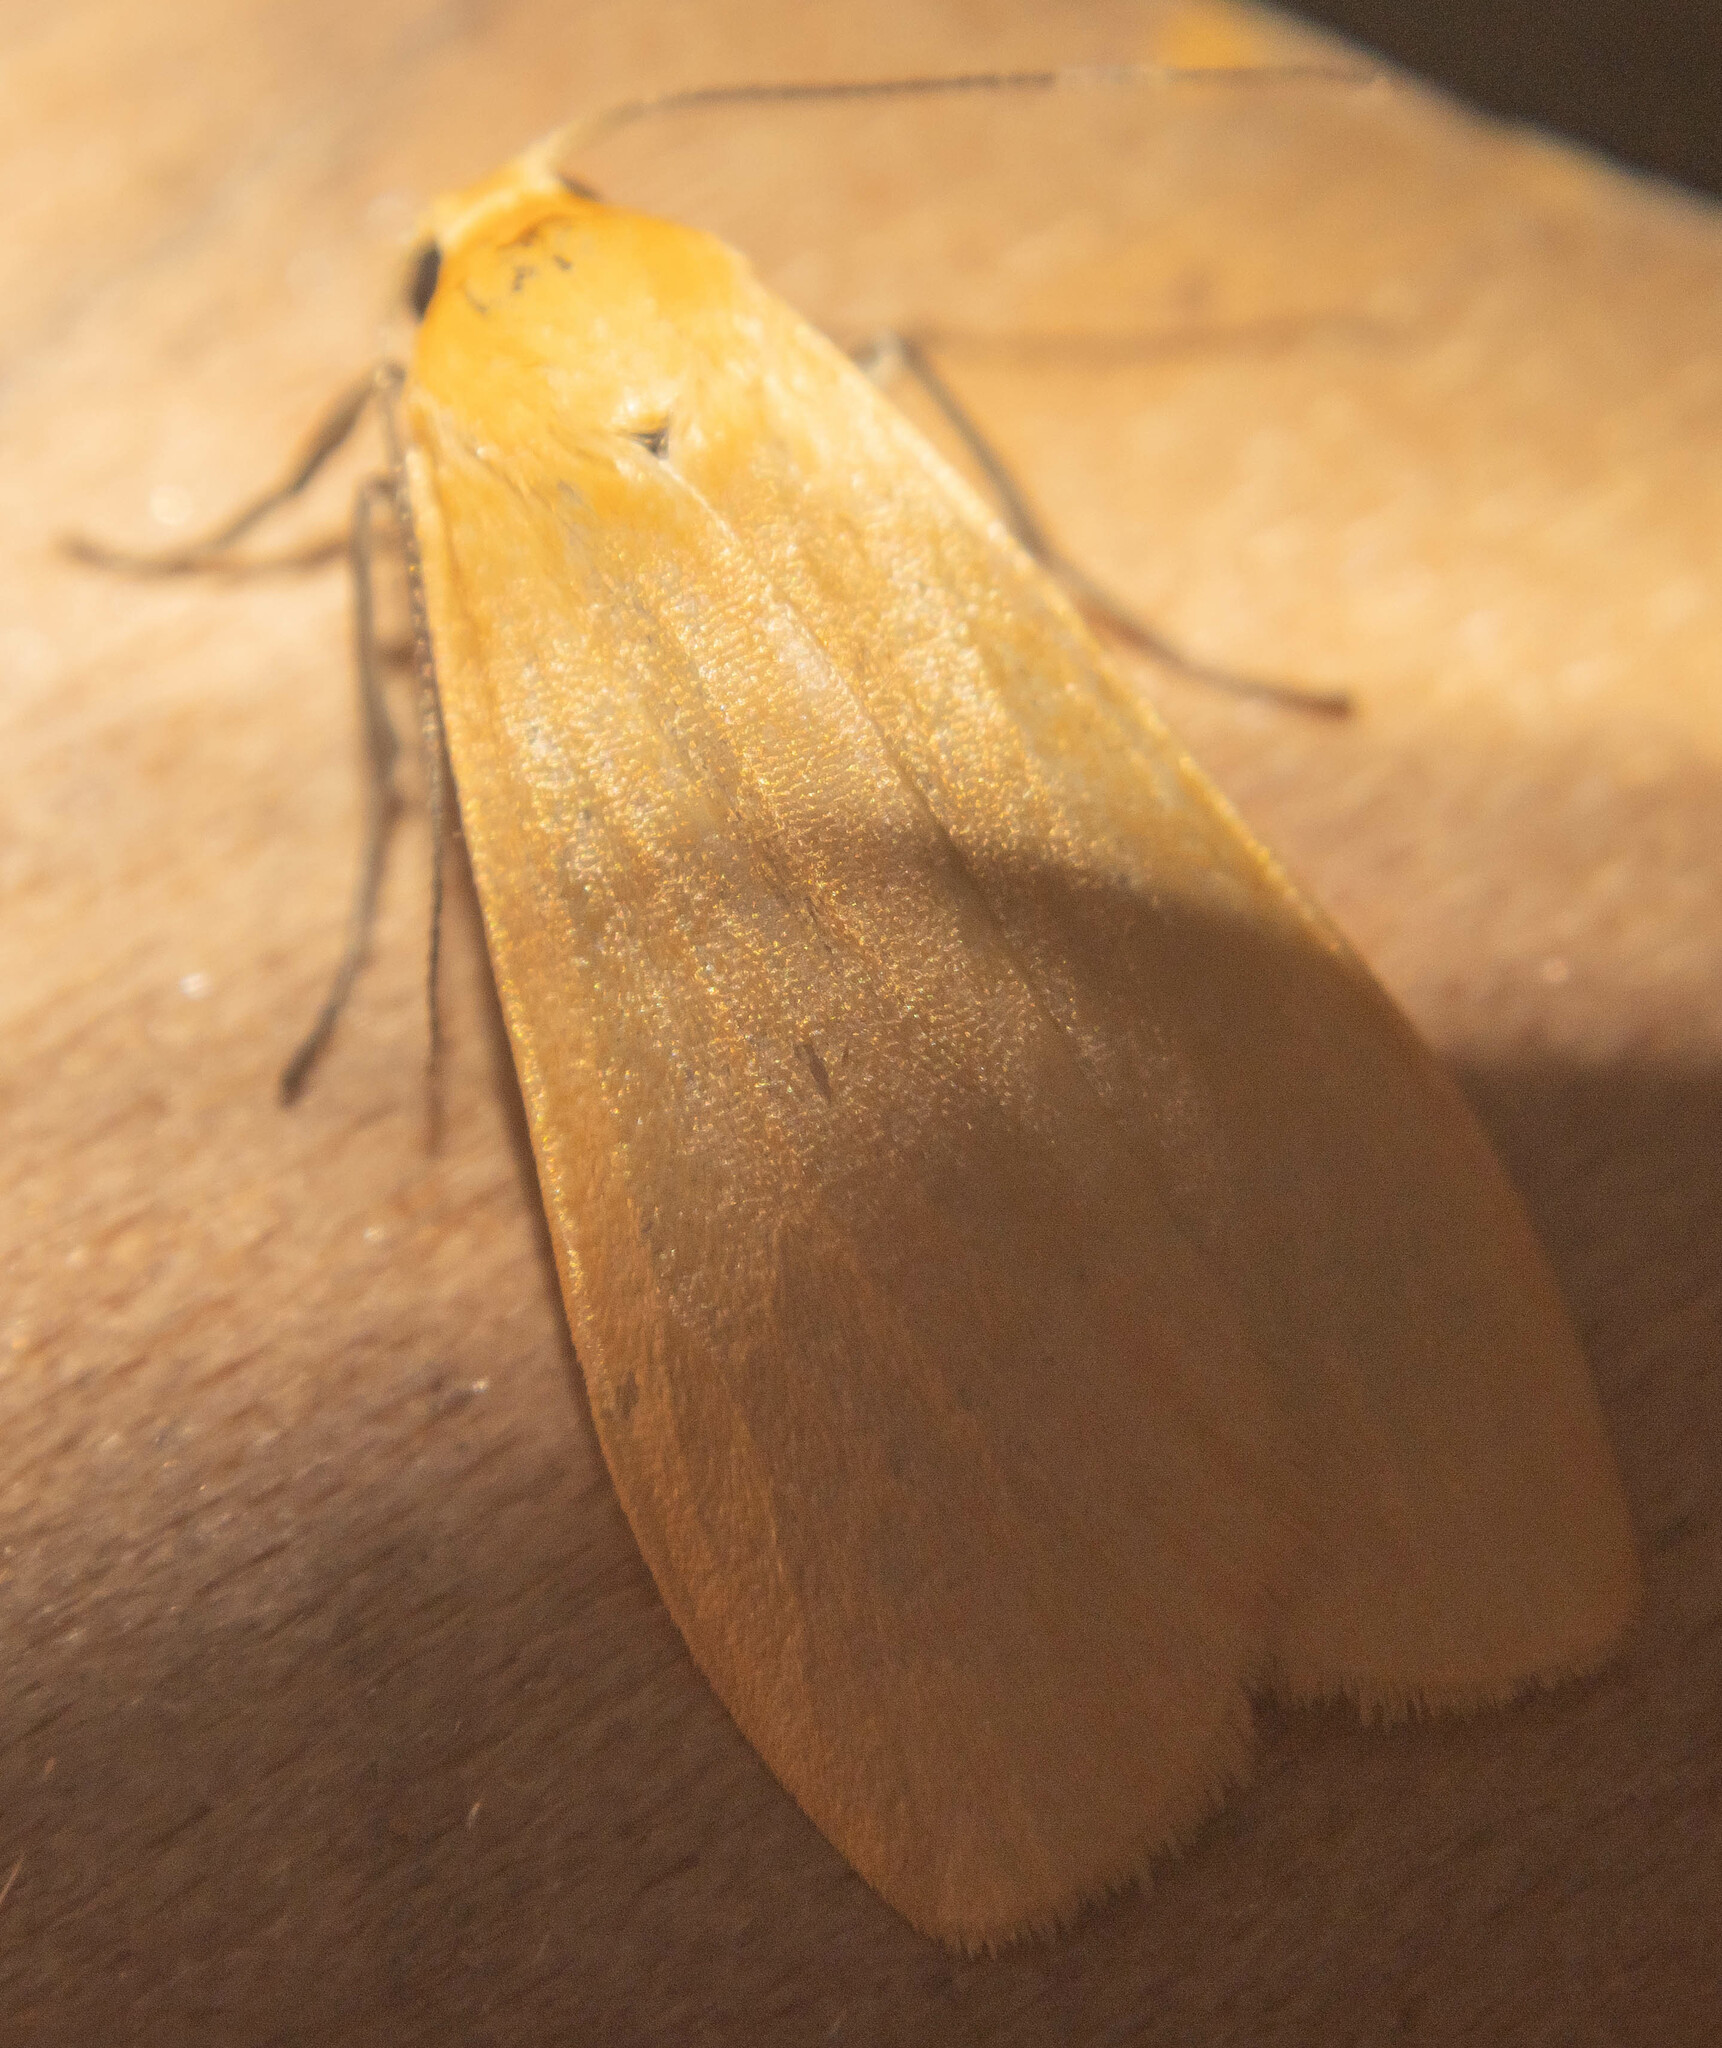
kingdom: Animalia
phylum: Arthropoda
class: Insecta
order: Lepidoptera
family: Erebidae
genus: Wittia
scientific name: Wittia sororcula
